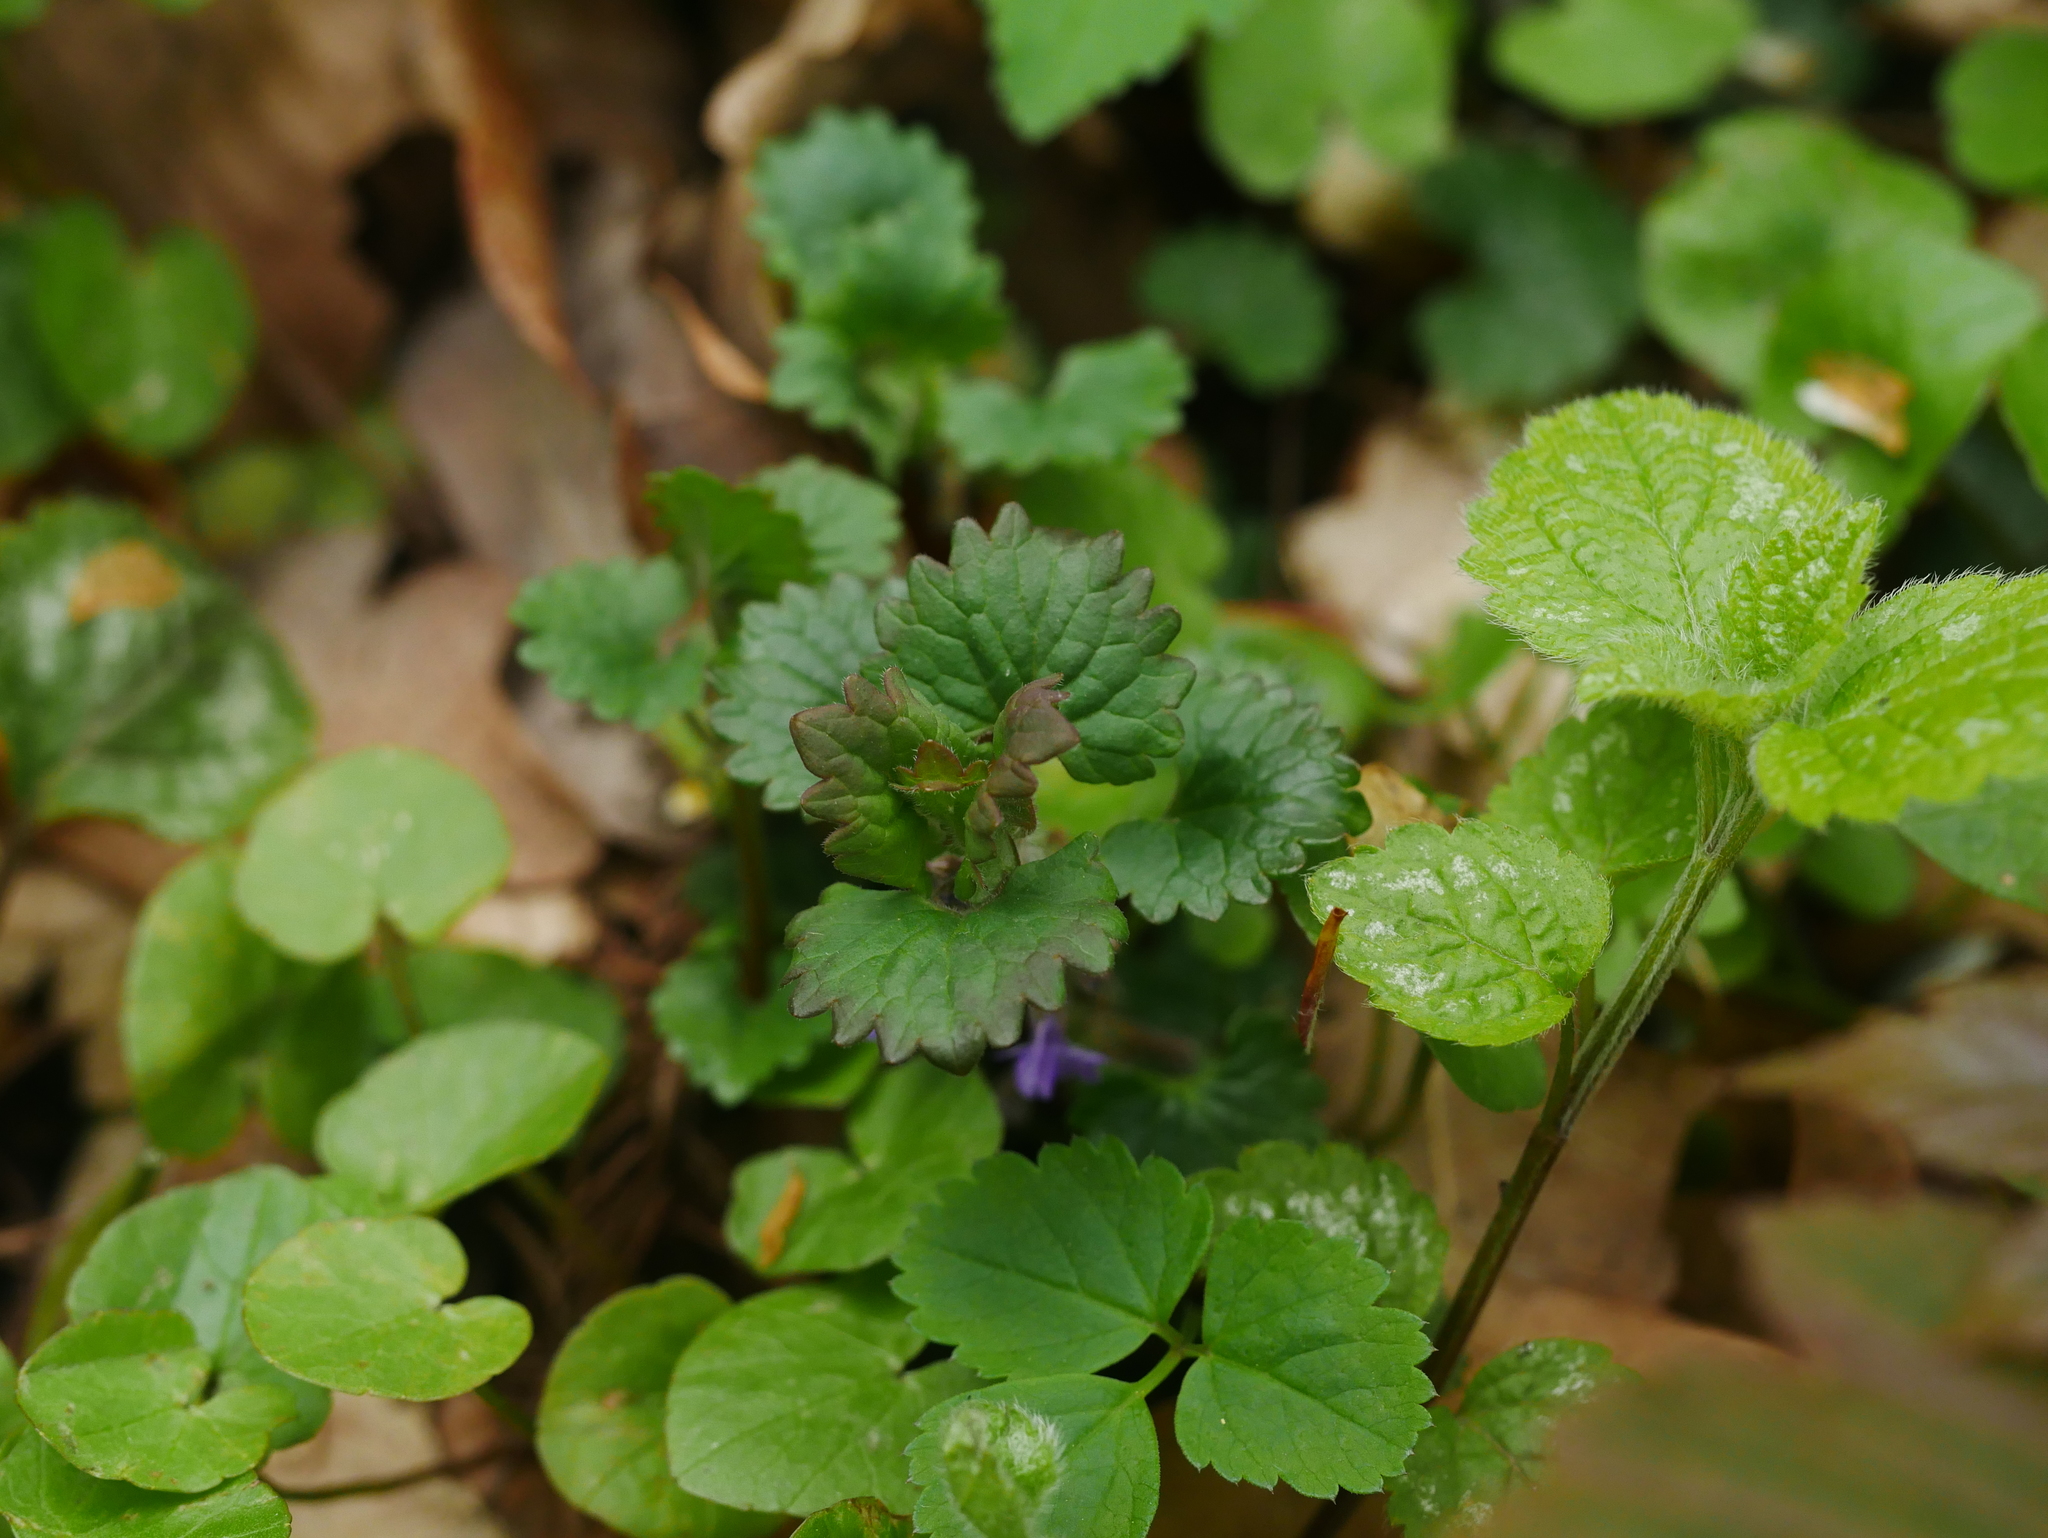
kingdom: Plantae
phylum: Tracheophyta
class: Magnoliopsida
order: Lamiales
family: Lamiaceae
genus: Glechoma
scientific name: Glechoma hederacea
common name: Ground ivy
